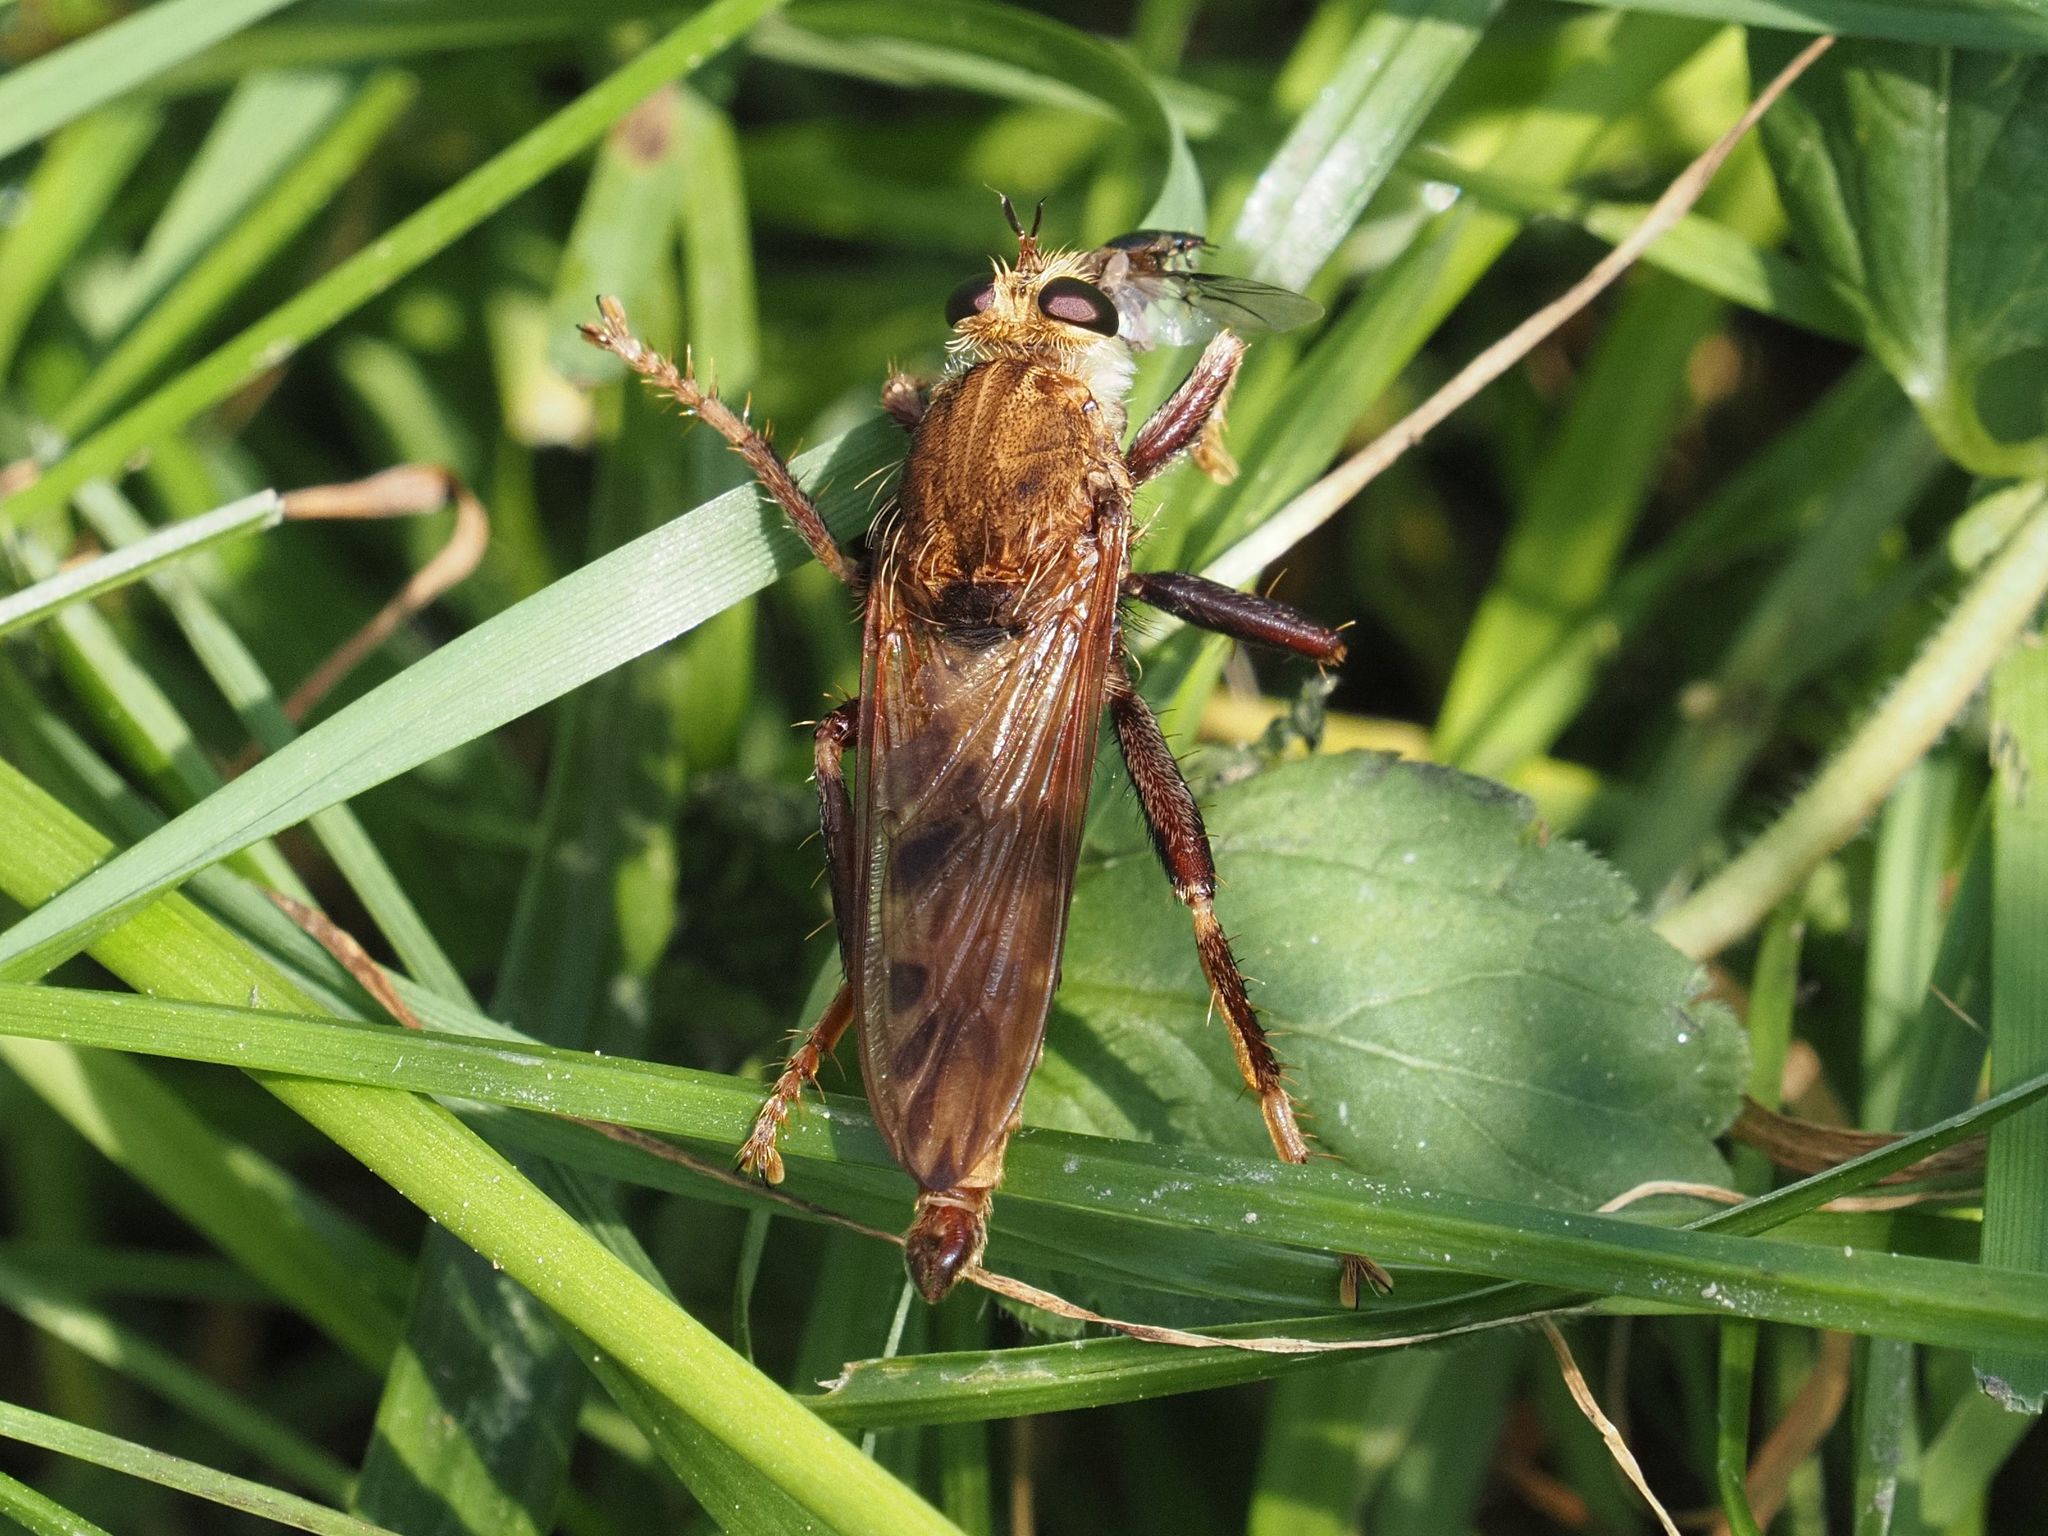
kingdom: Animalia
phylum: Arthropoda
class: Insecta
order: Diptera
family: Asilidae
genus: Asilus
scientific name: Asilus crabroniformis
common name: Hornet robberfly
